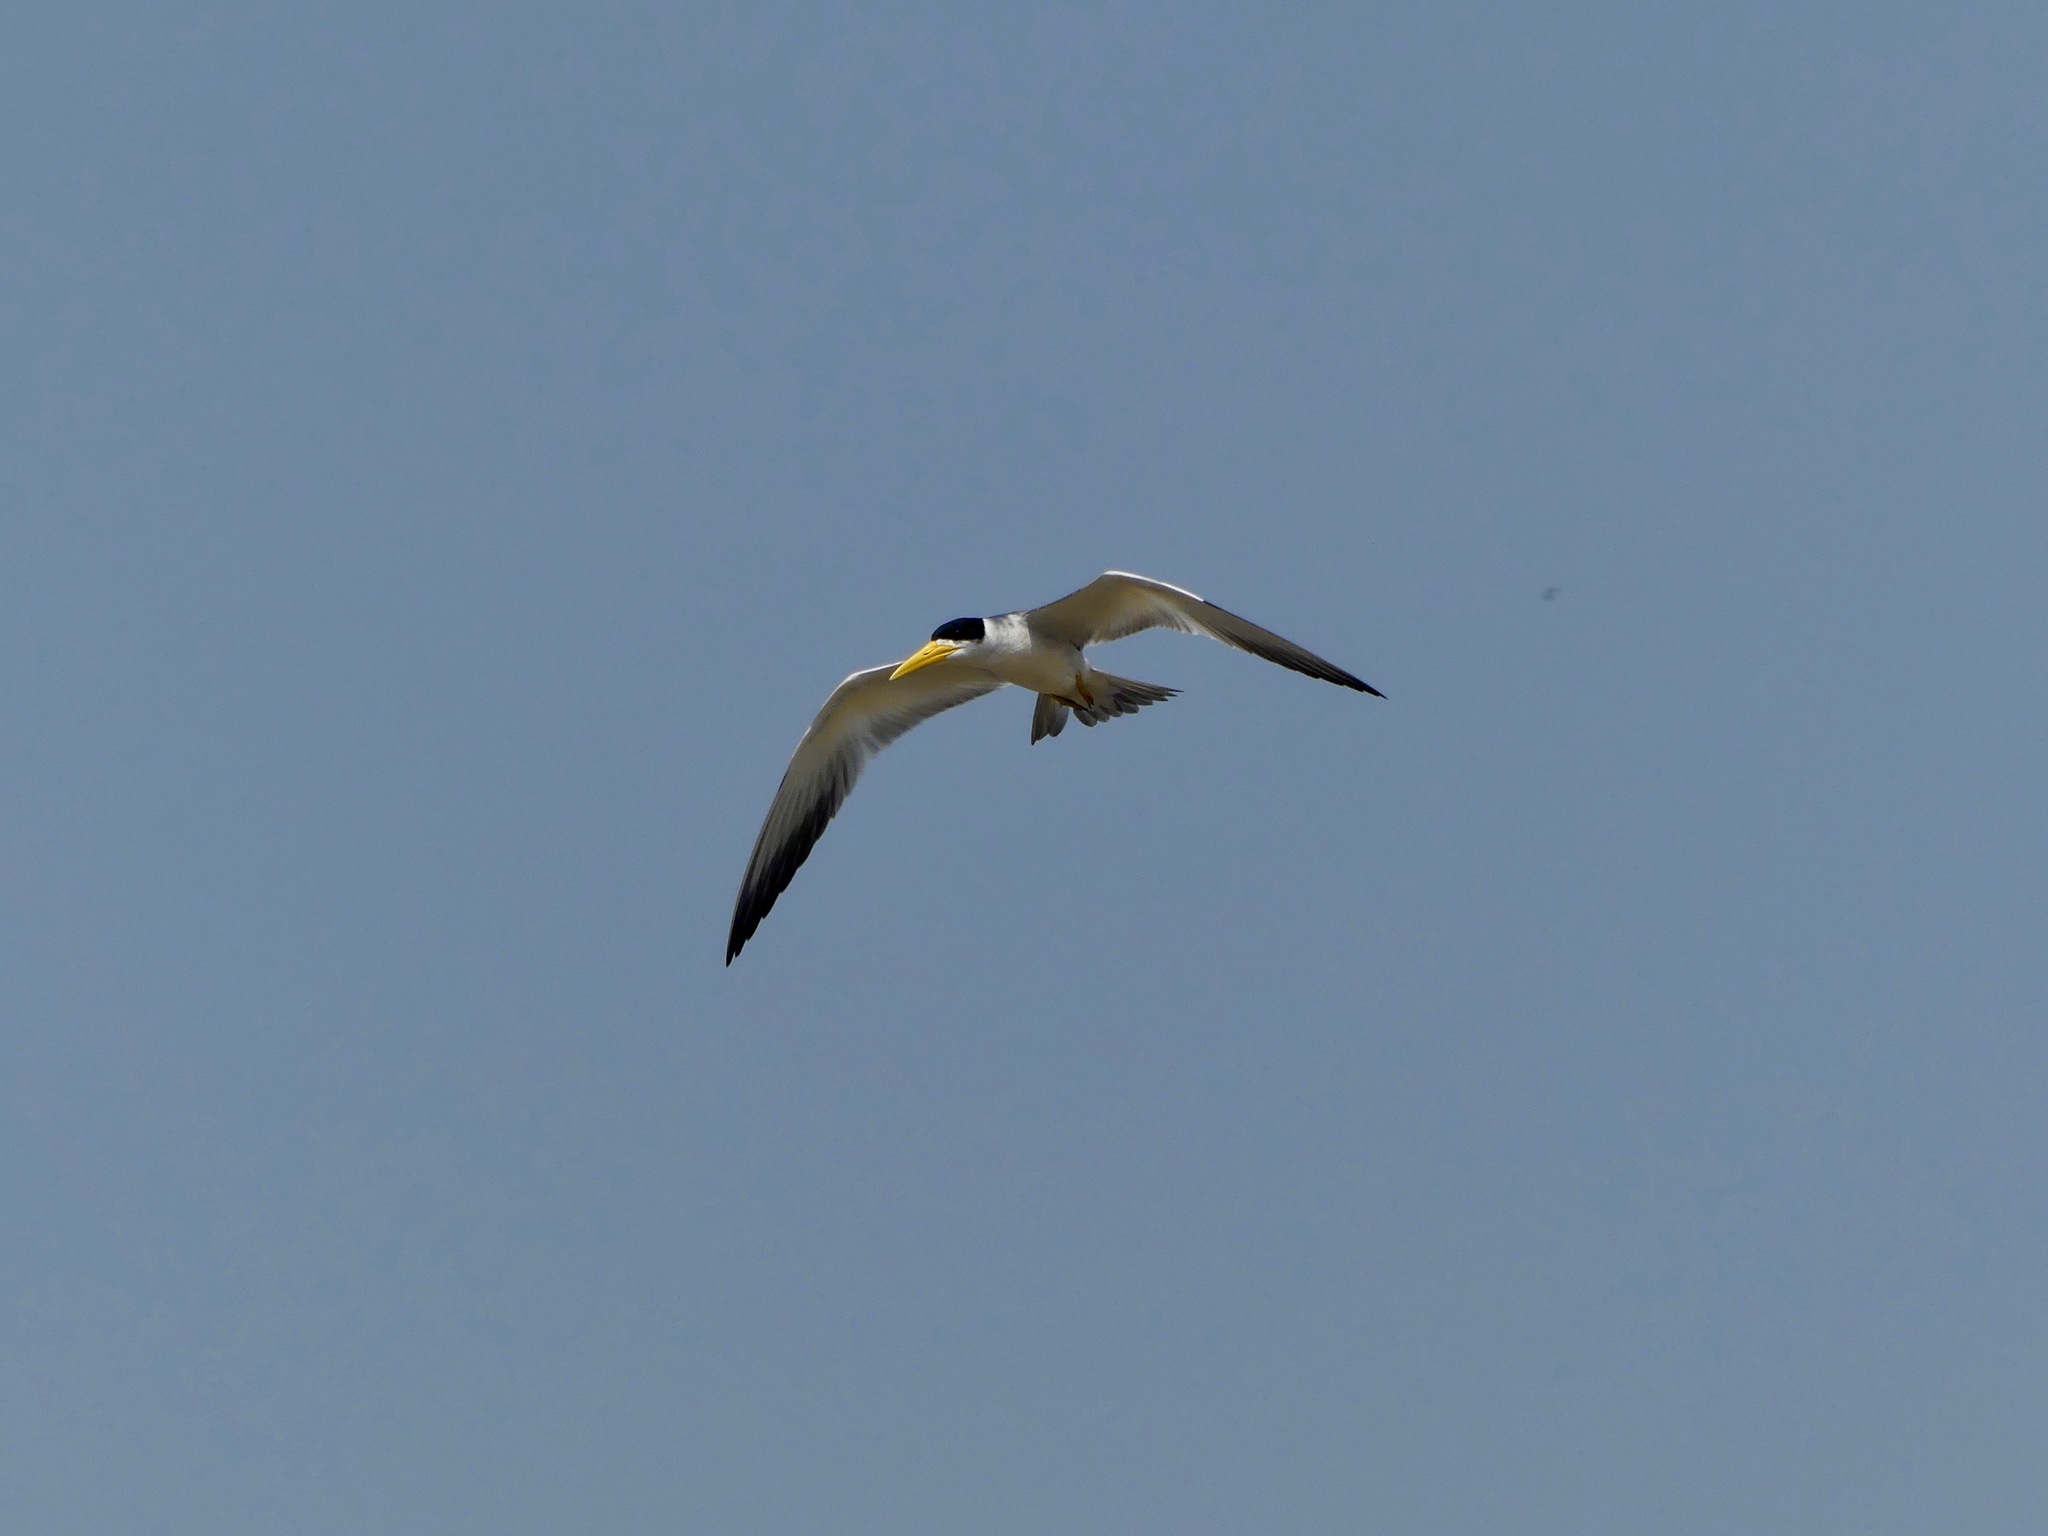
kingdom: Animalia
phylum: Chordata
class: Aves
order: Charadriiformes
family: Laridae
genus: Phaetusa
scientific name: Phaetusa simplex
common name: Large-billed tern
